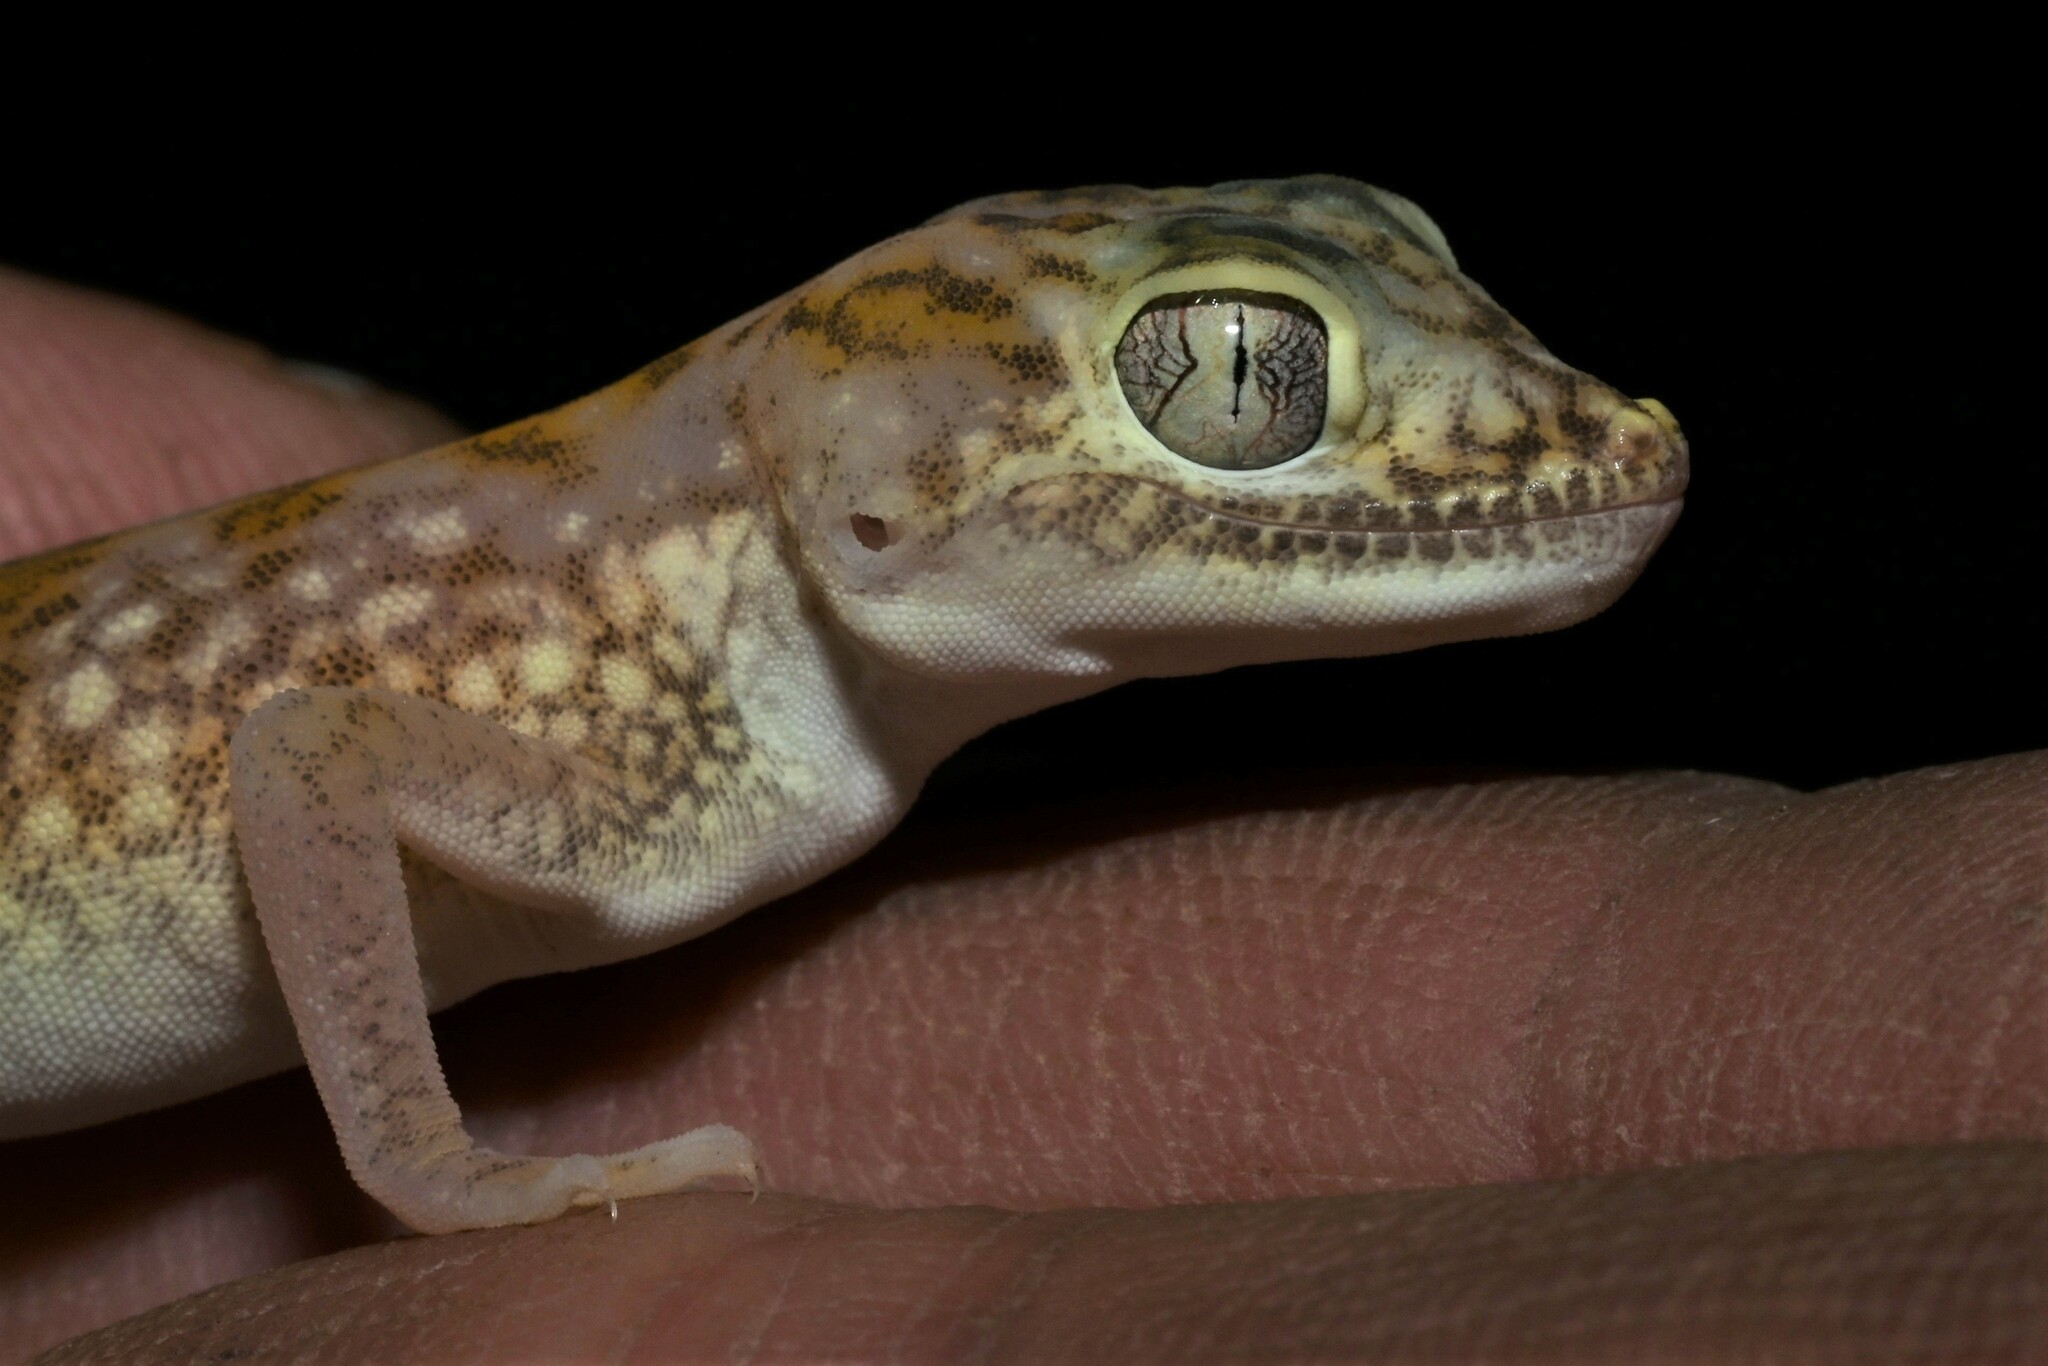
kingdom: Animalia
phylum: Chordata
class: Squamata
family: Gekkonidae
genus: Stenodactylus
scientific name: Stenodactylus doriae
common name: Dune sand gecko
